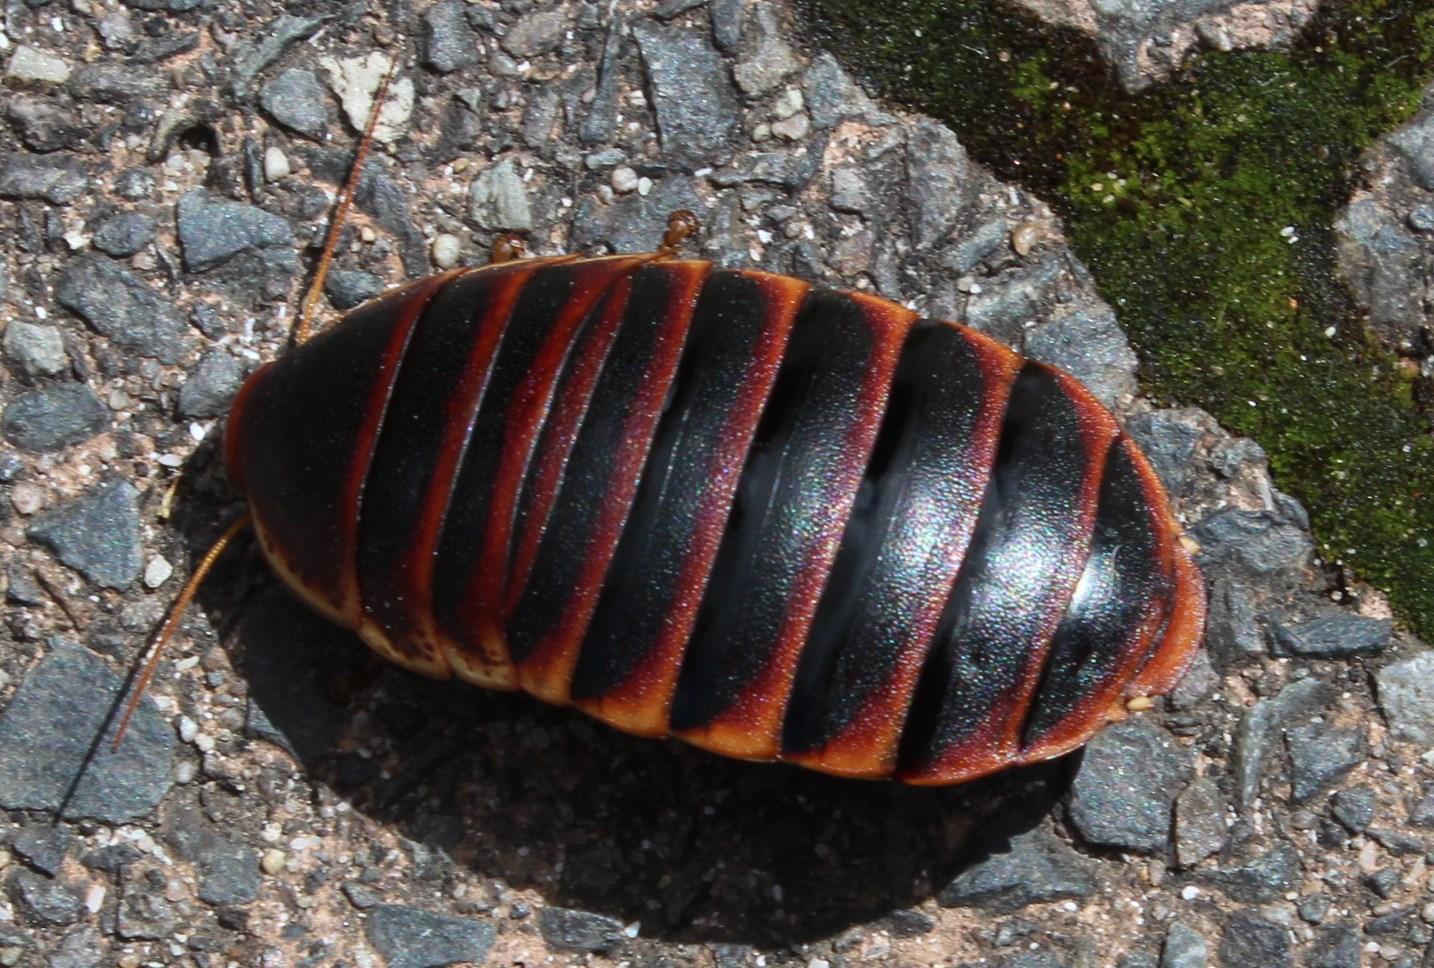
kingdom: Animalia
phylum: Arthropoda
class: Insecta
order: Blattodea
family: Blaberidae
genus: Aptera
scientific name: Aptera fusca
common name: Cape mountain cockroach
